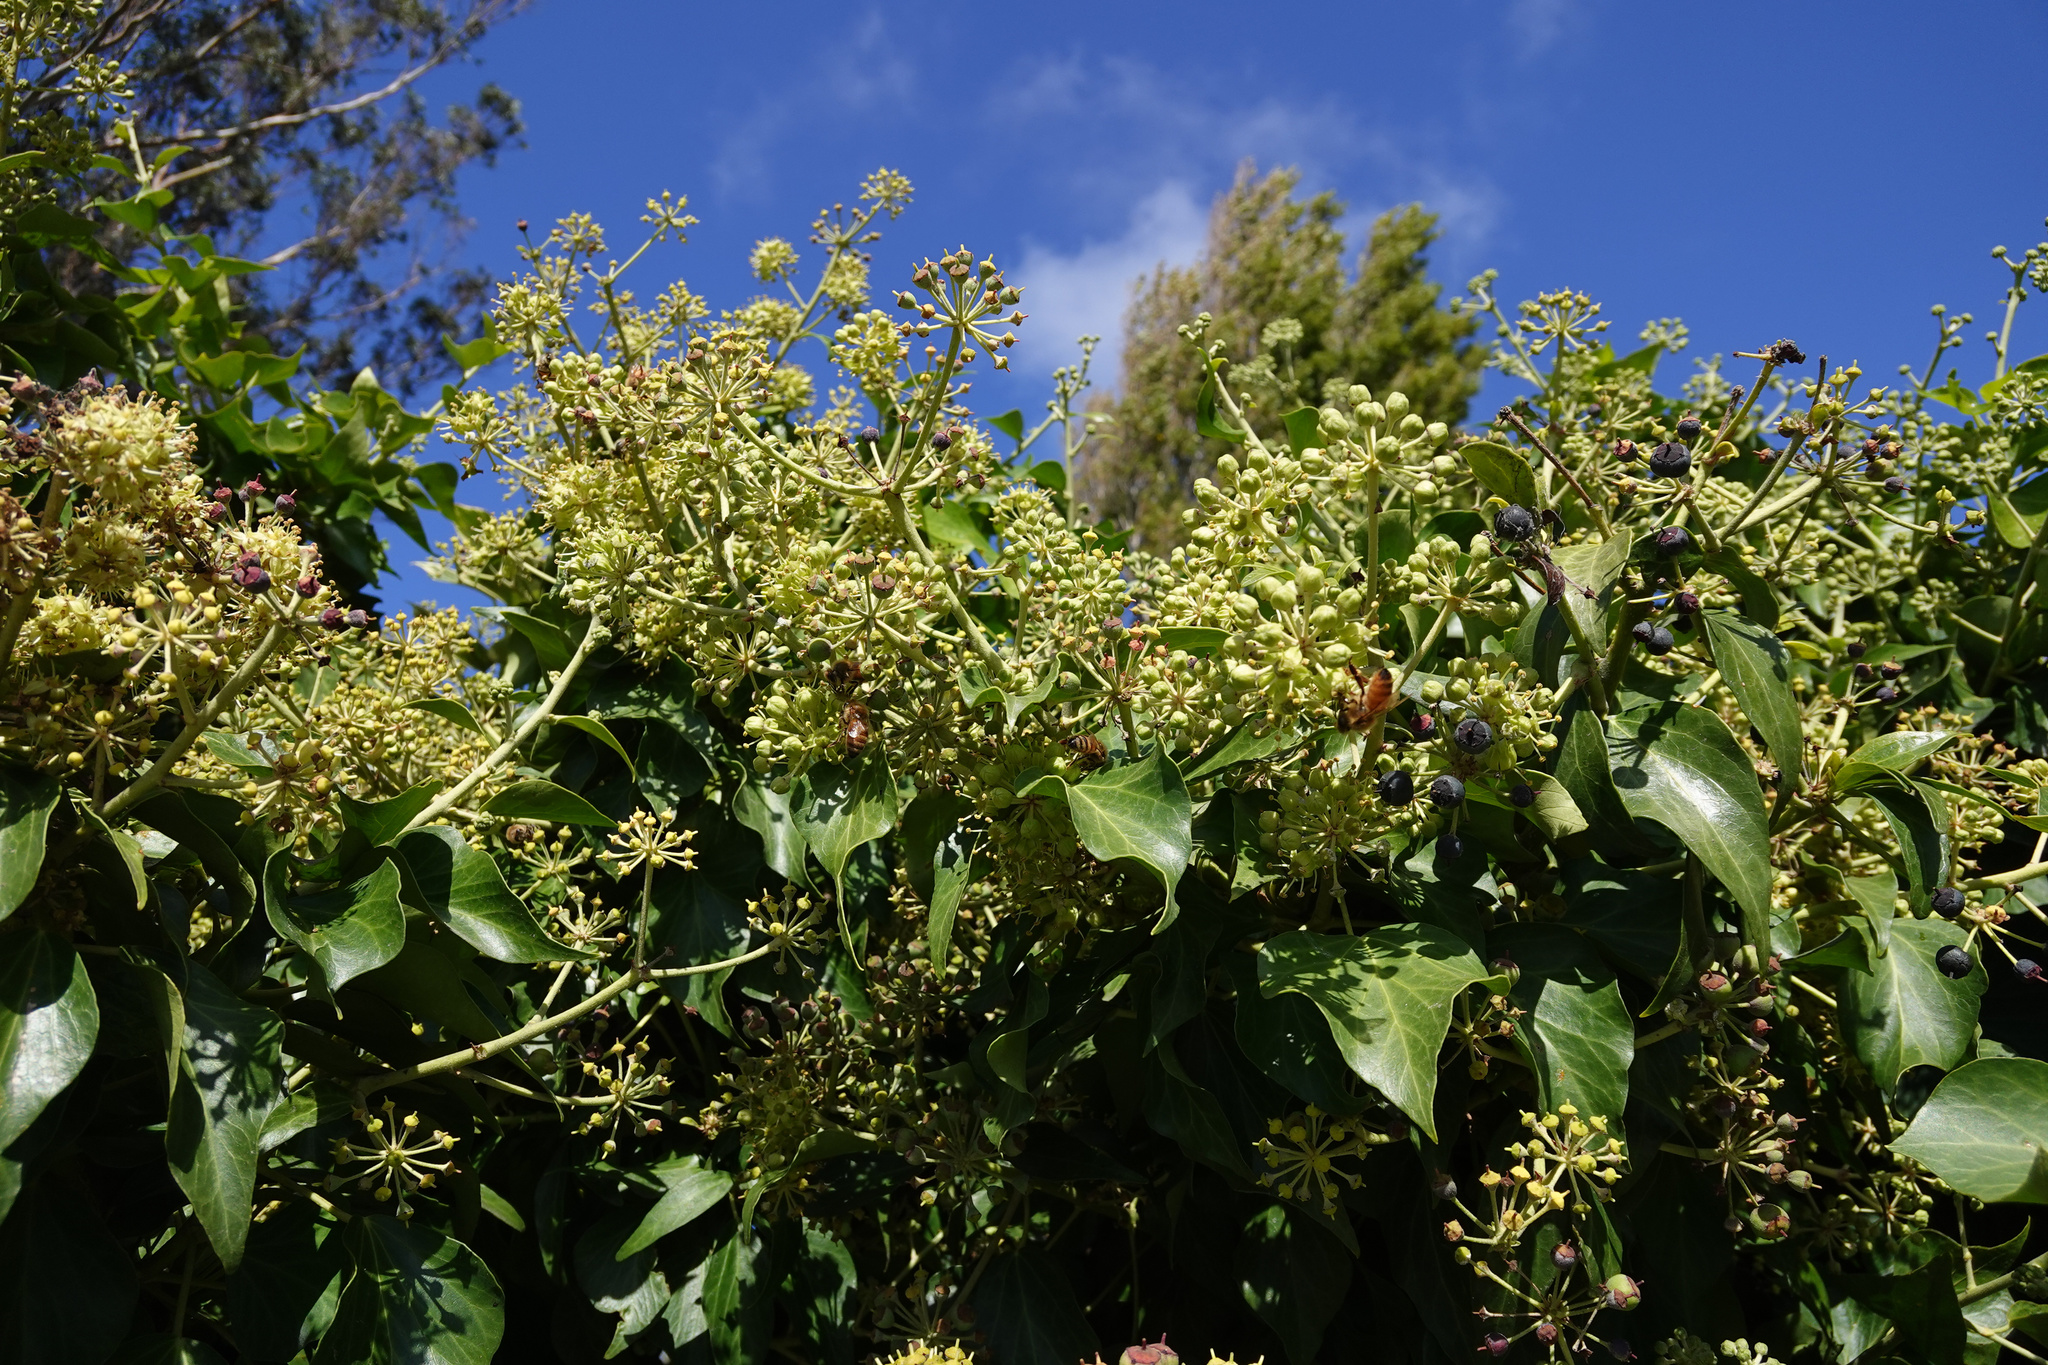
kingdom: Plantae
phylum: Tracheophyta
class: Magnoliopsida
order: Apiales
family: Araliaceae
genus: Hedera
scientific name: Hedera helix
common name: Ivy
